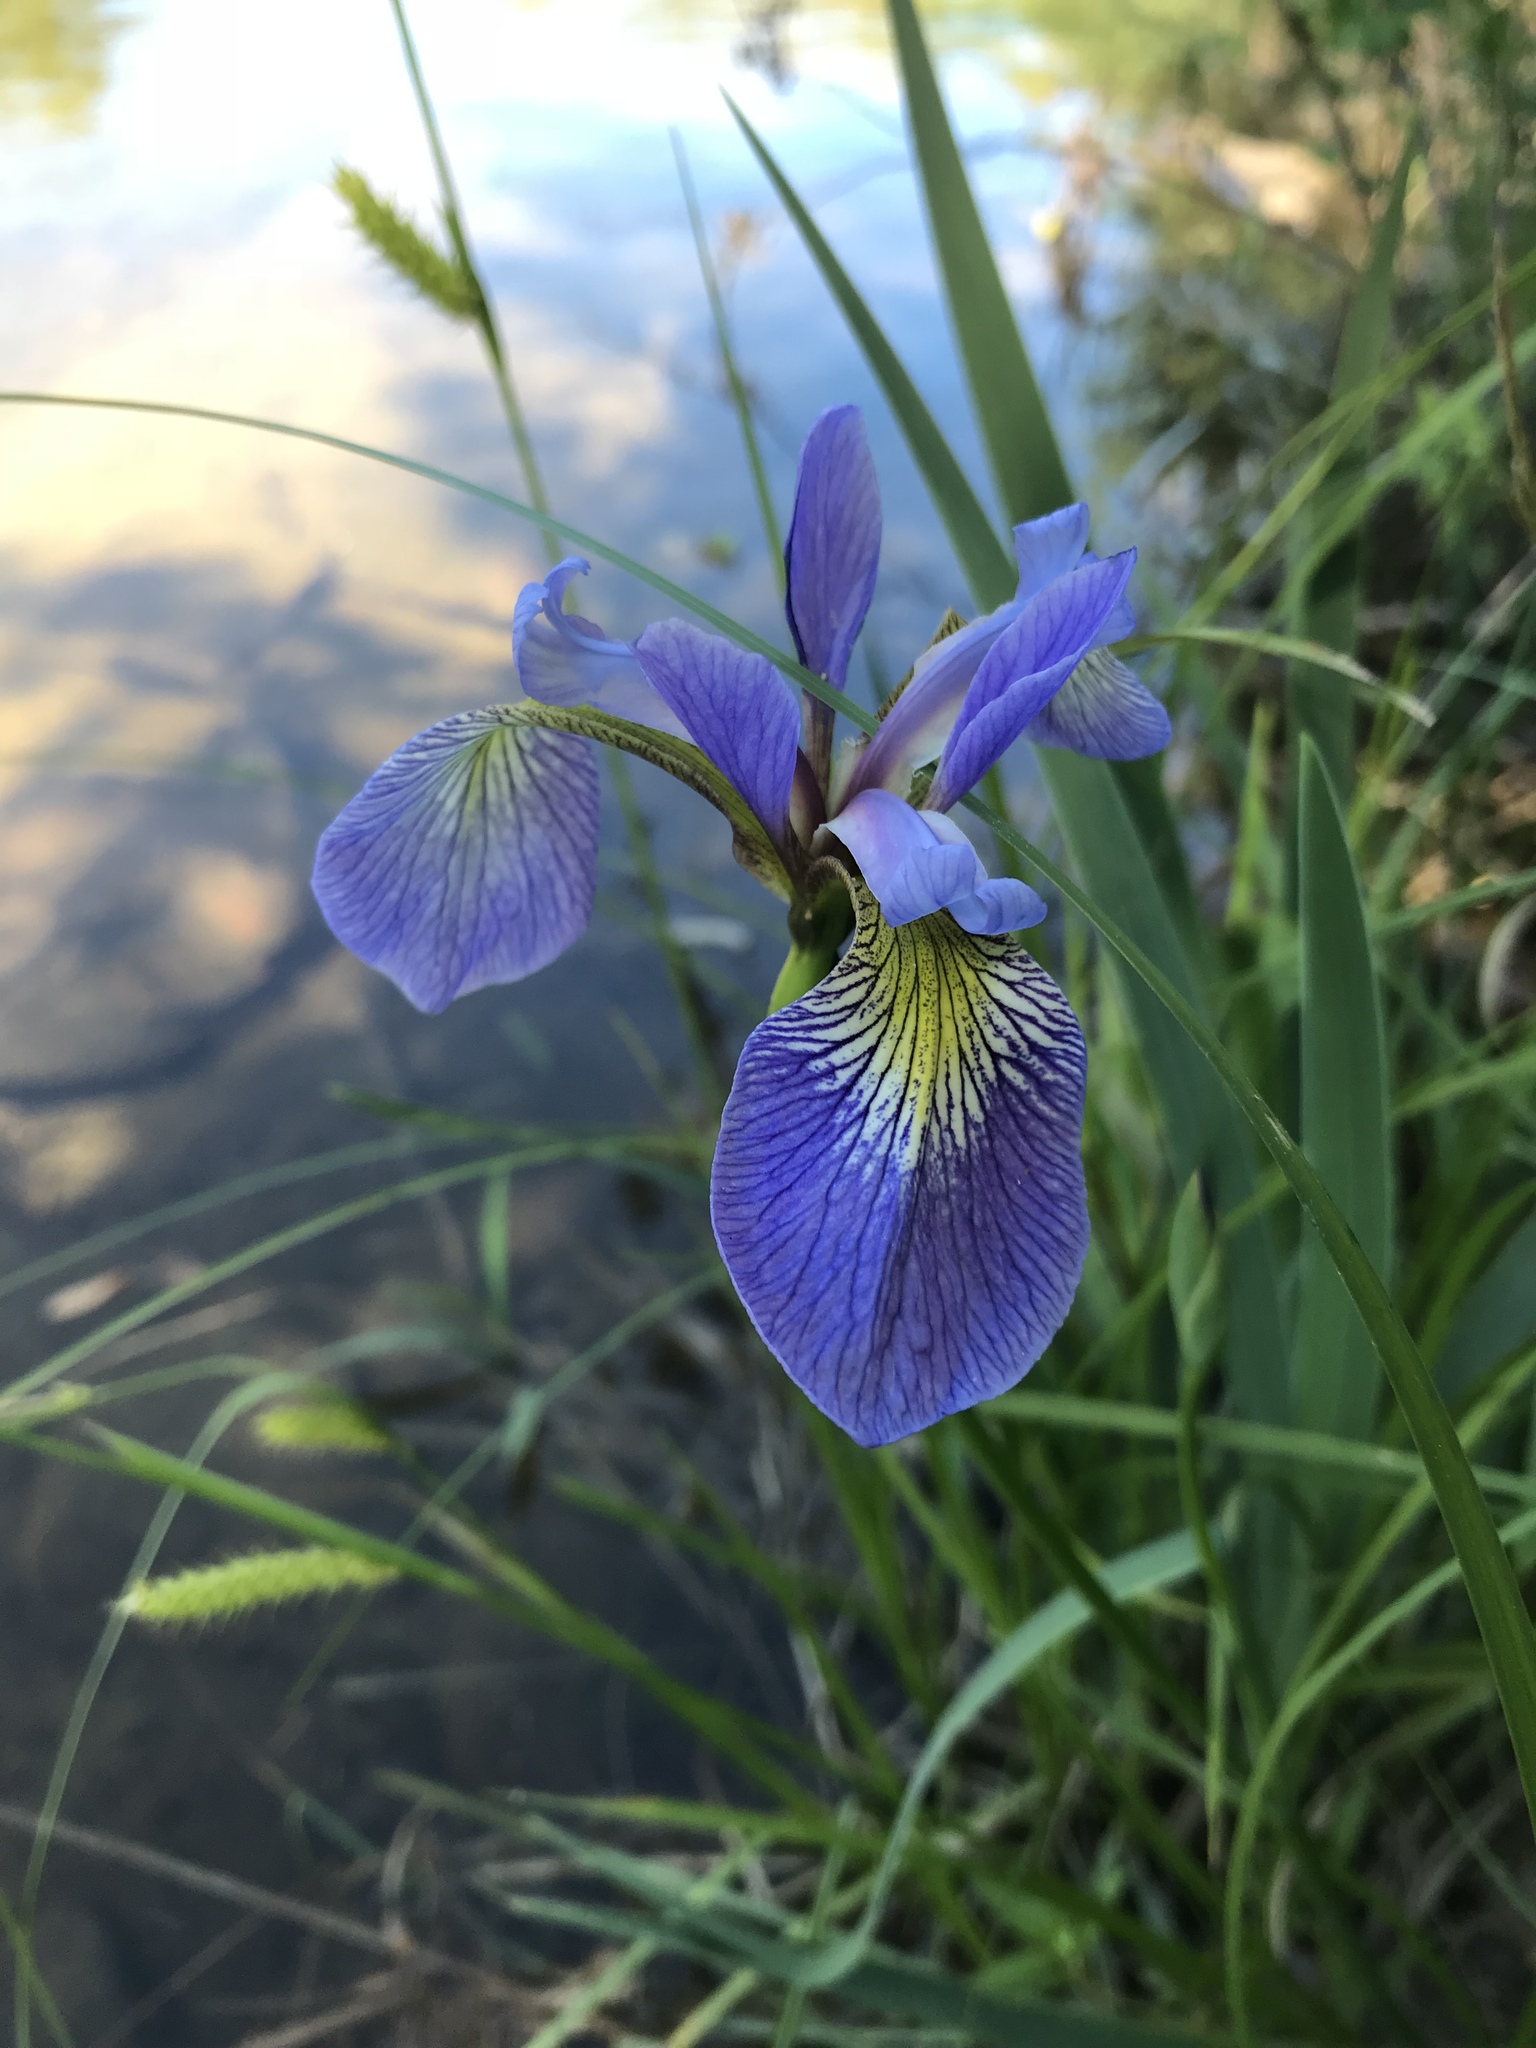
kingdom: Plantae
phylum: Tracheophyta
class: Liliopsida
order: Asparagales
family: Iridaceae
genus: Iris
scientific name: Iris versicolor
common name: Purple iris
